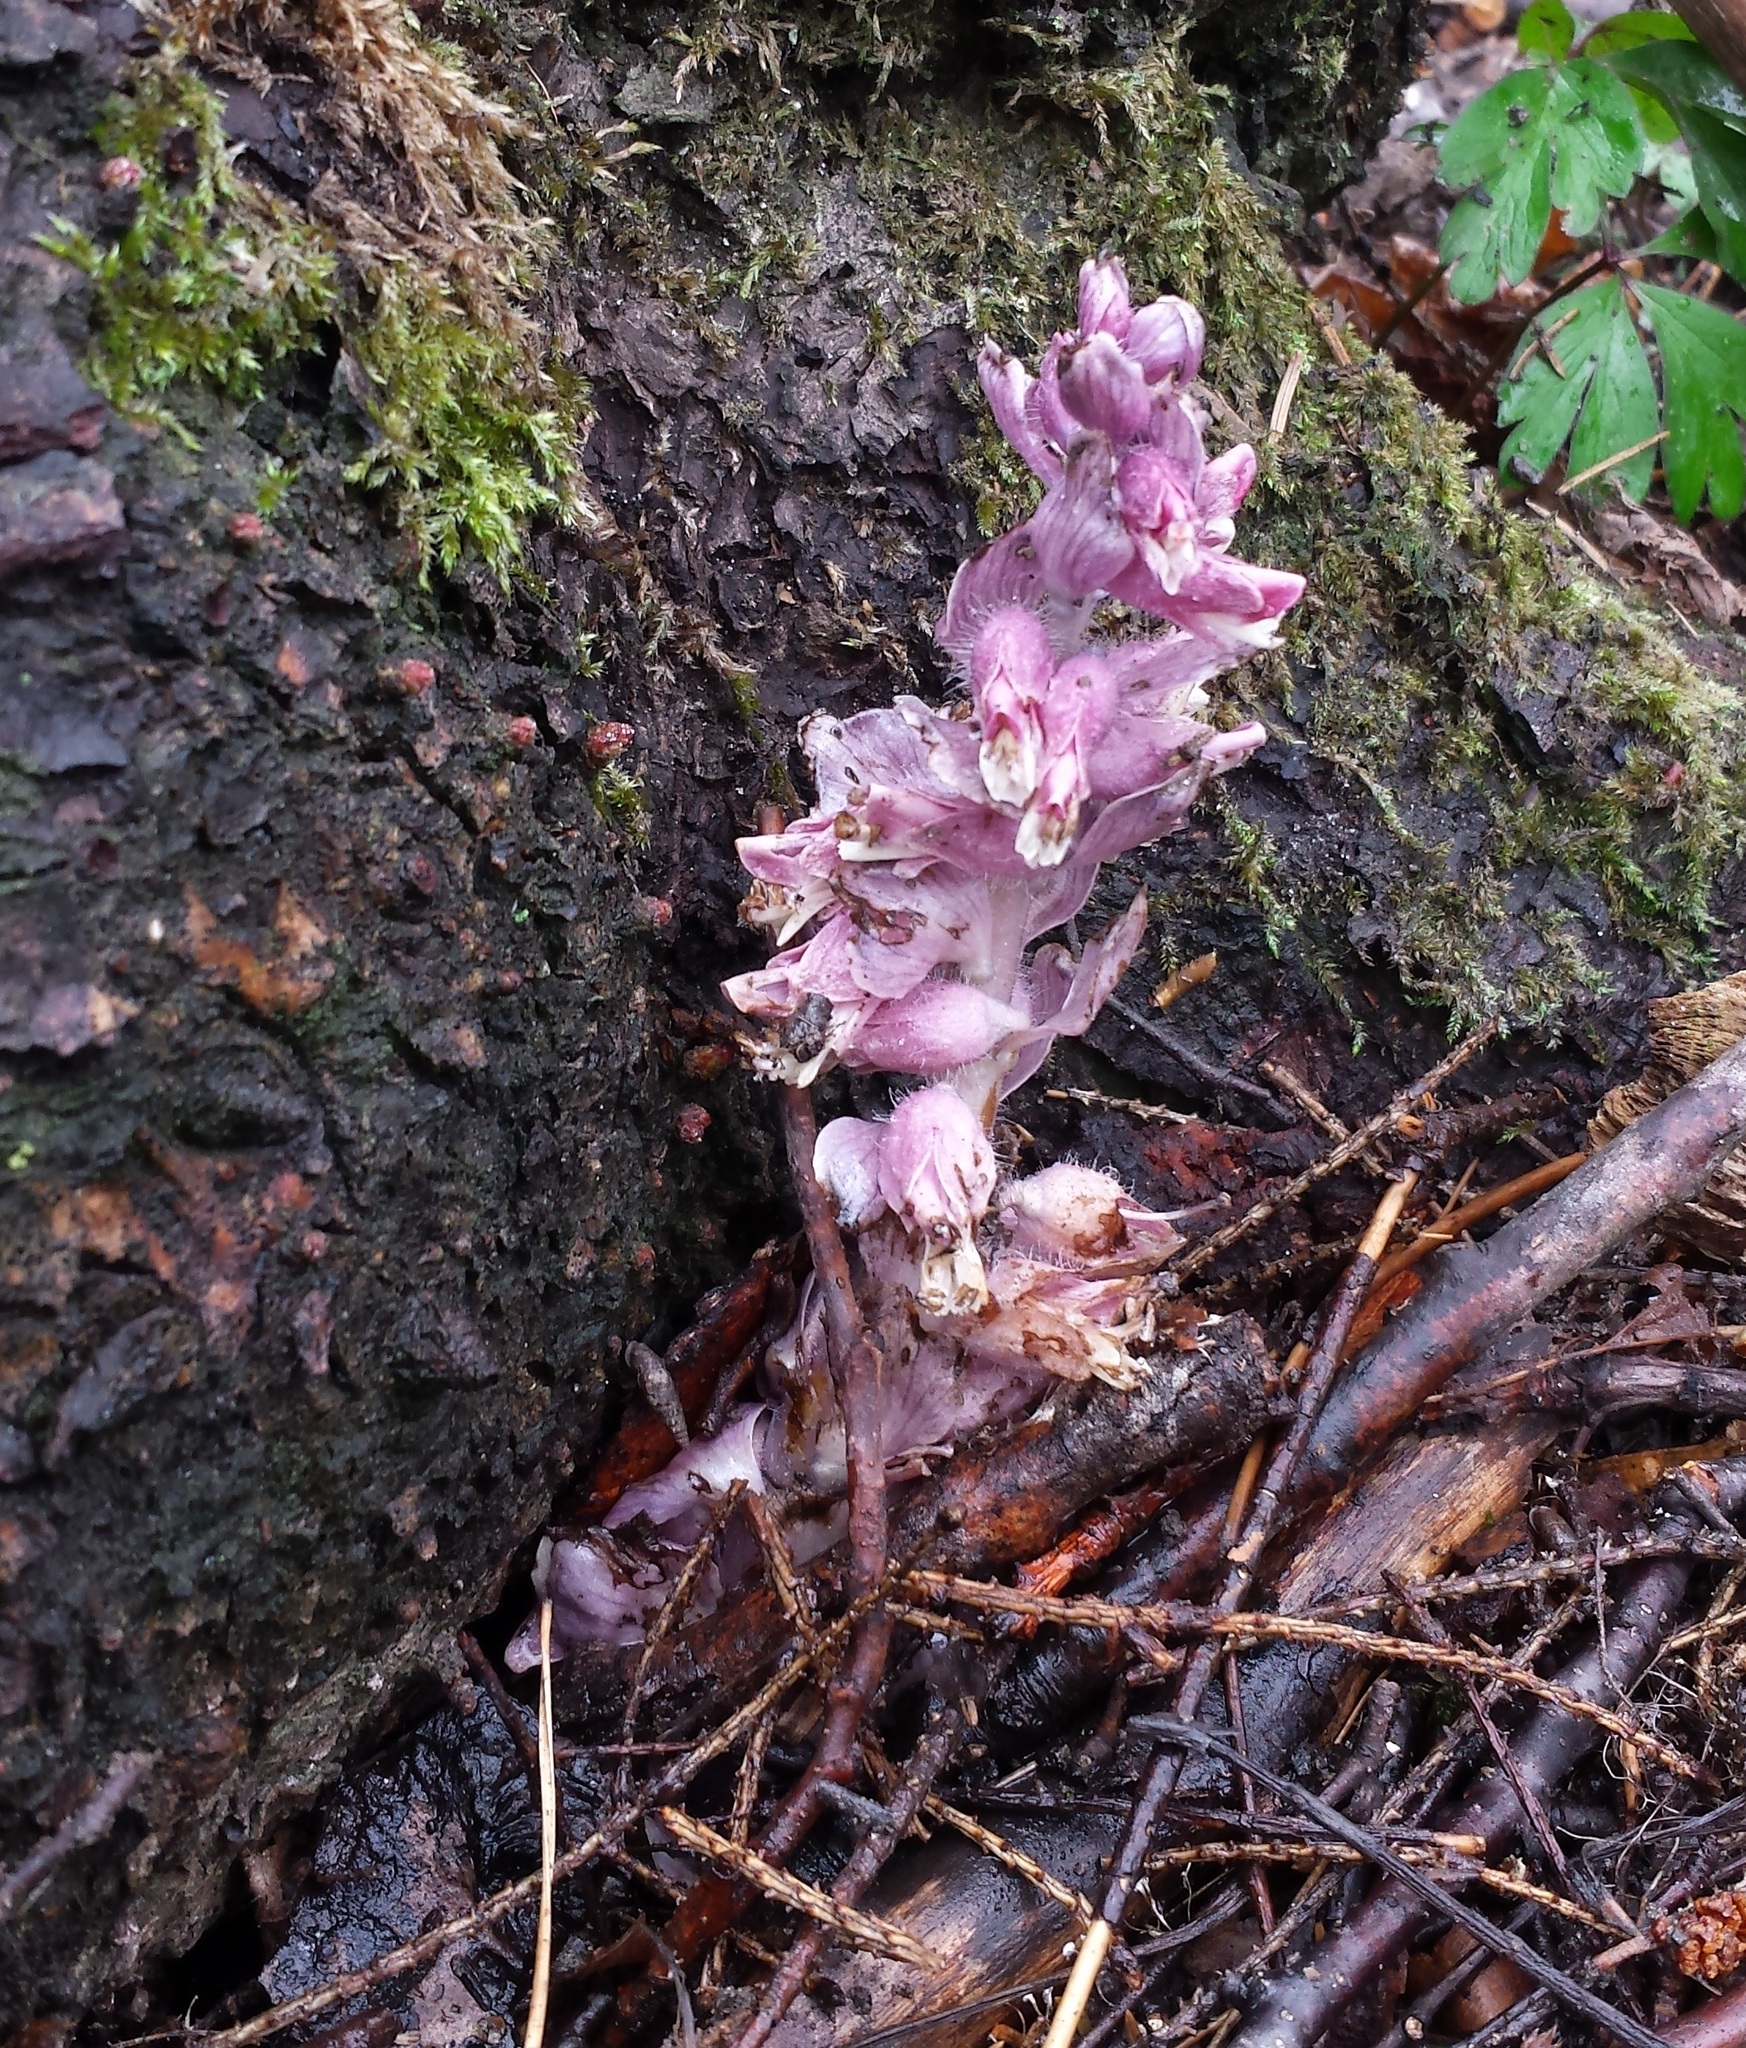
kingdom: Plantae
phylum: Tracheophyta
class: Magnoliopsida
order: Lamiales
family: Orobanchaceae
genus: Lathraea
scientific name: Lathraea squamaria
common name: Toothwort
